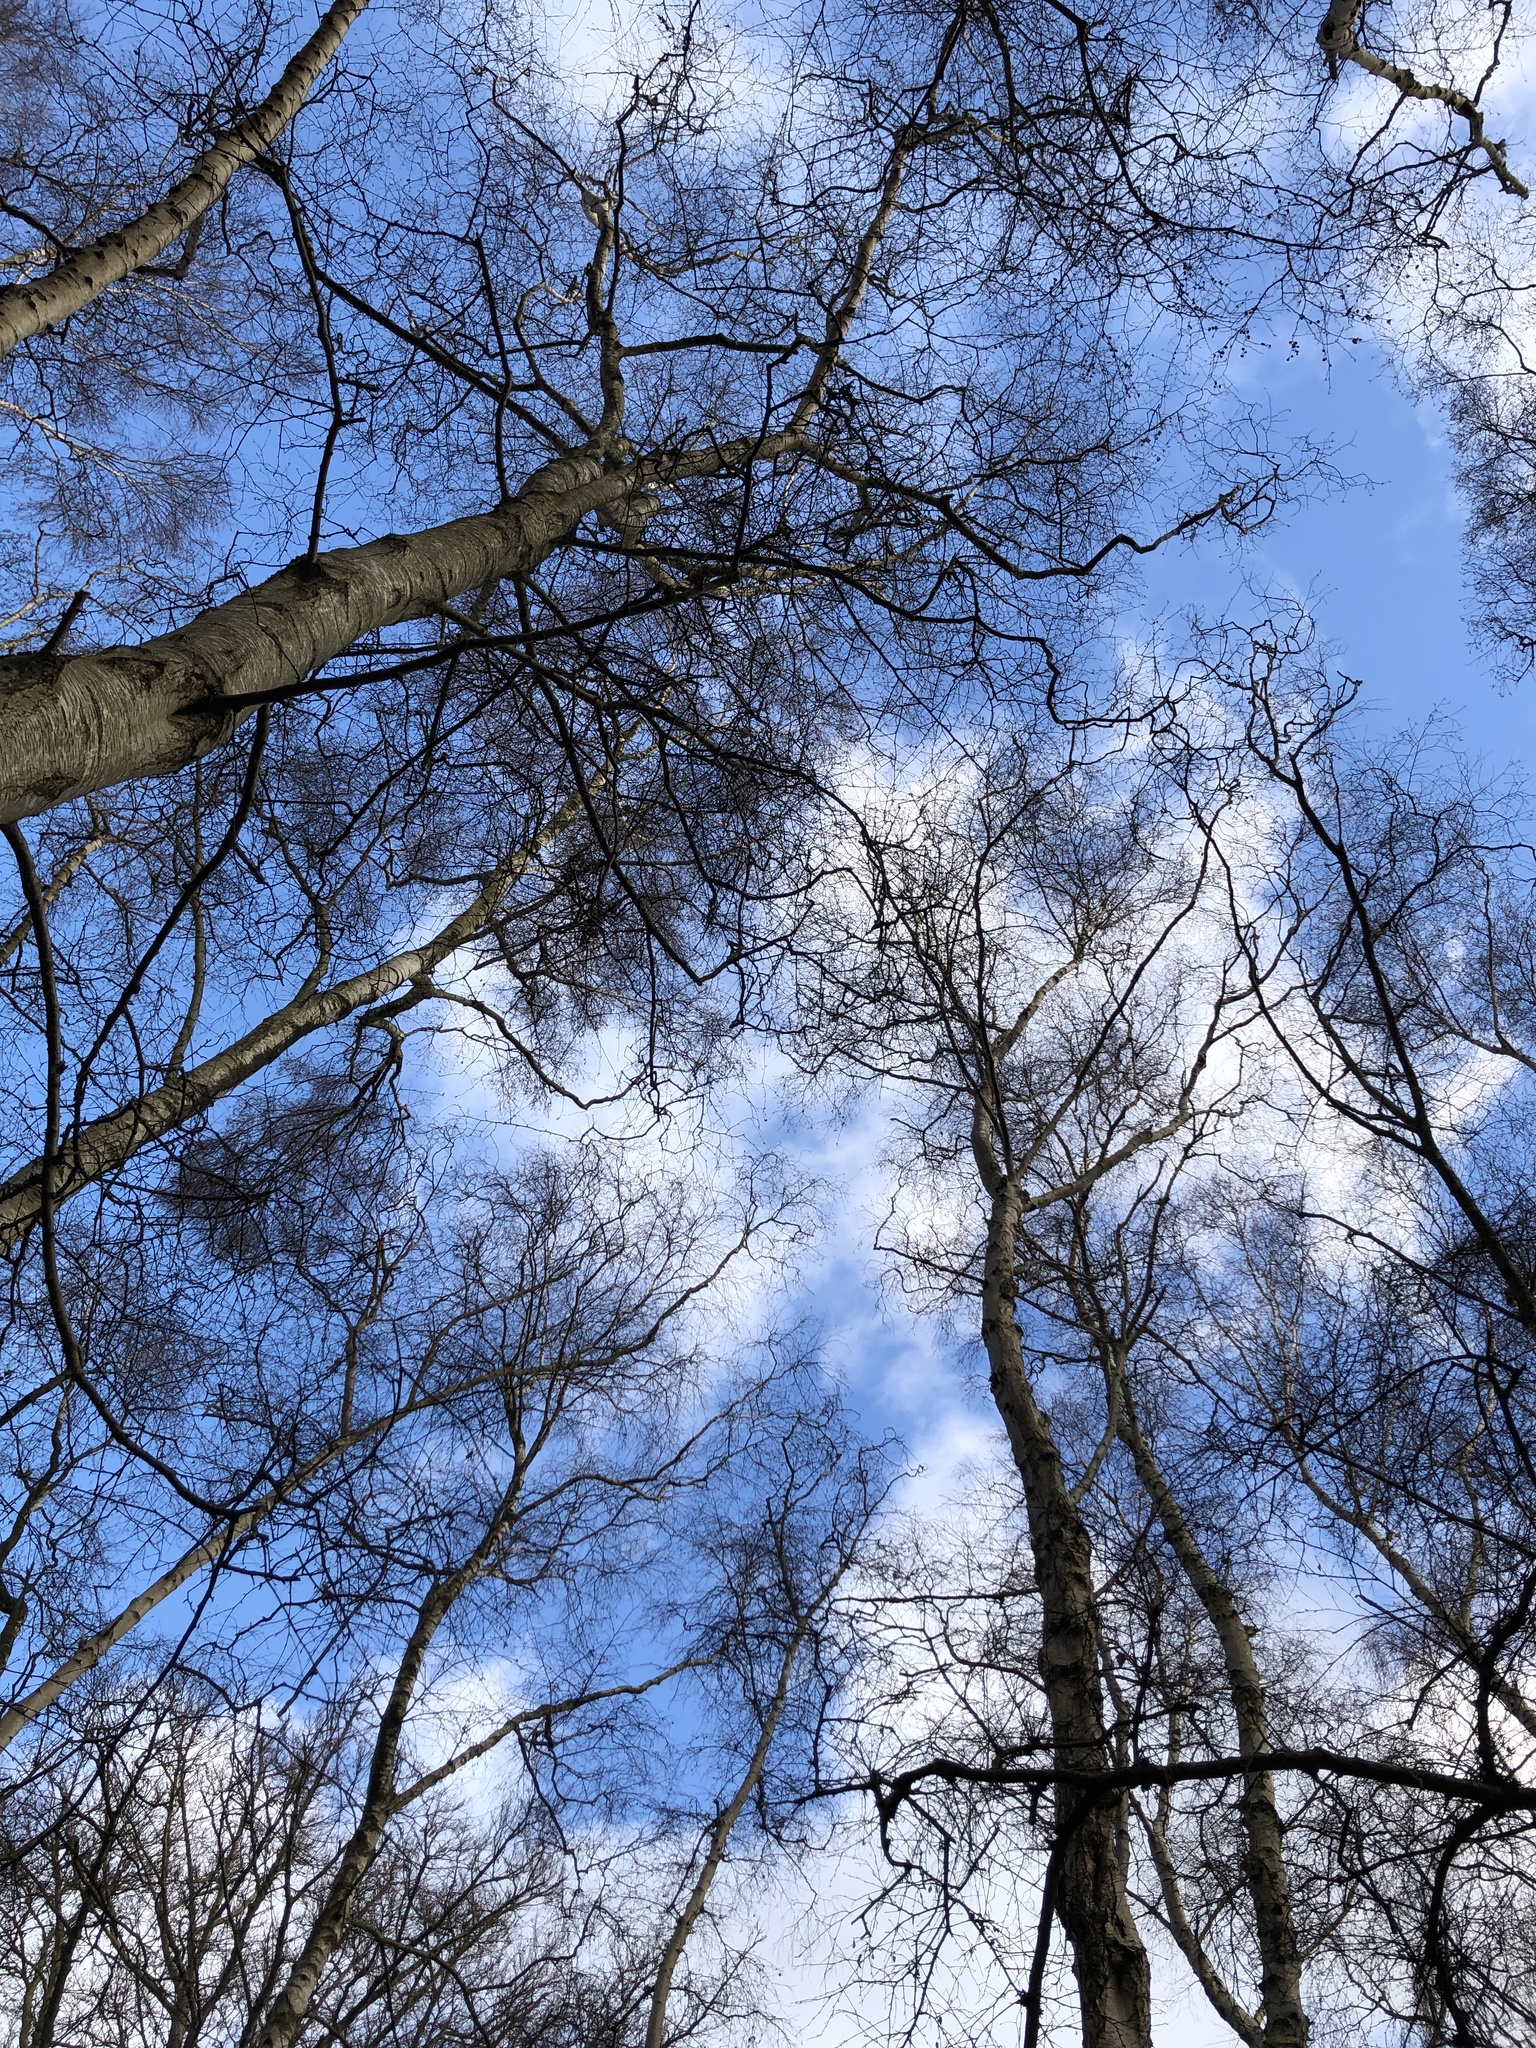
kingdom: Plantae
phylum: Bryophyta
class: Bryopsida
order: Hypnales
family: Hypnaceae
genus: Hypnum
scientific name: Hypnum jutlandicum
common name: Heath plait-moss
